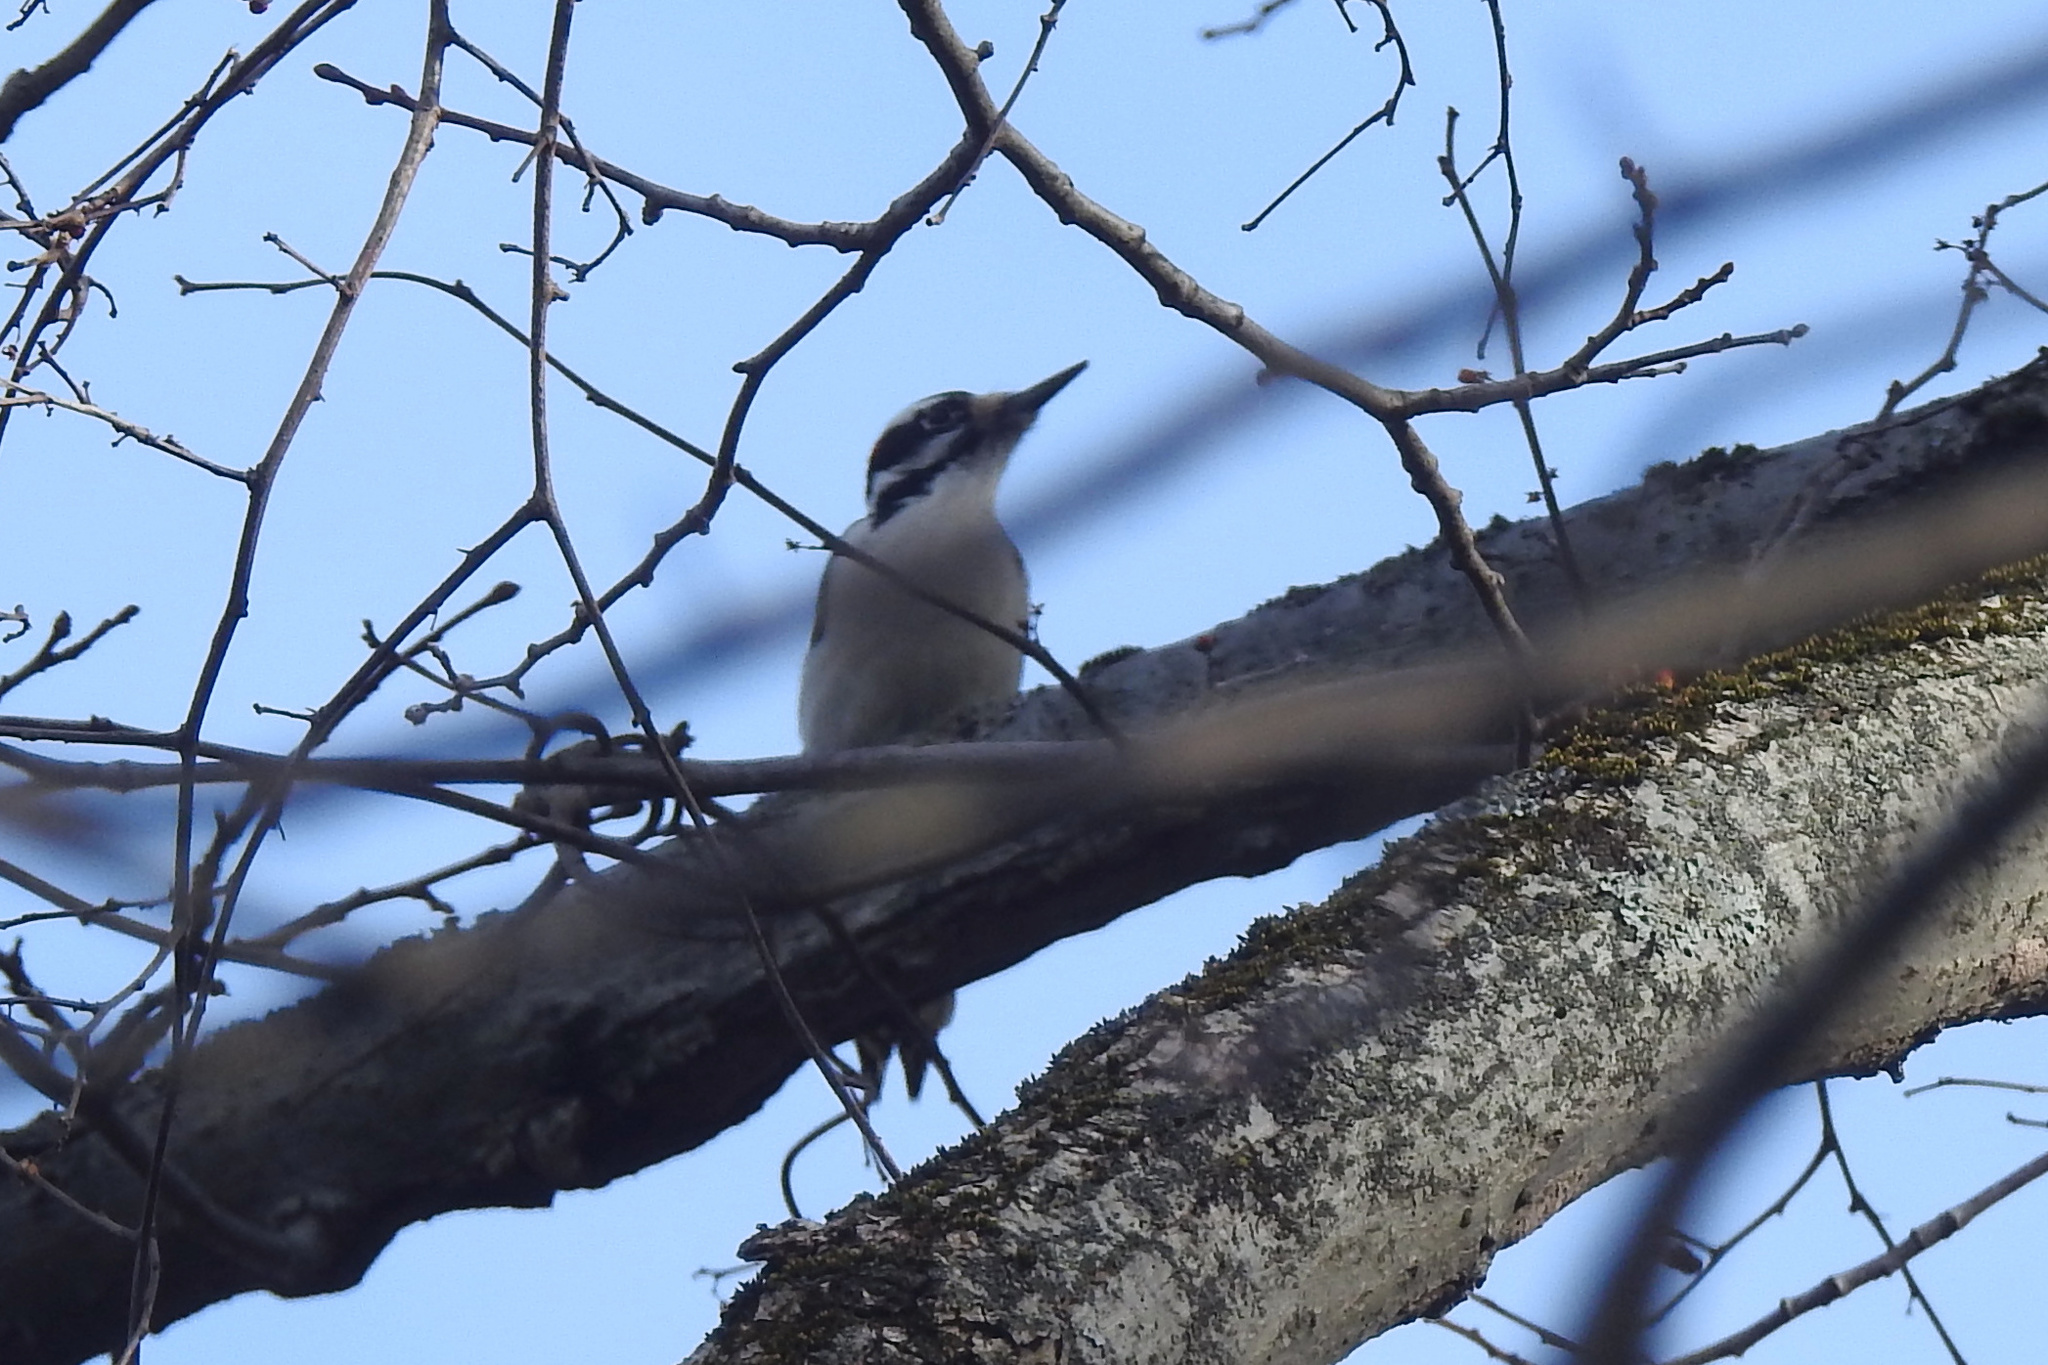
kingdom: Animalia
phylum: Chordata
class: Aves
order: Piciformes
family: Picidae
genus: Leuconotopicus
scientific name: Leuconotopicus villosus
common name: Hairy woodpecker
